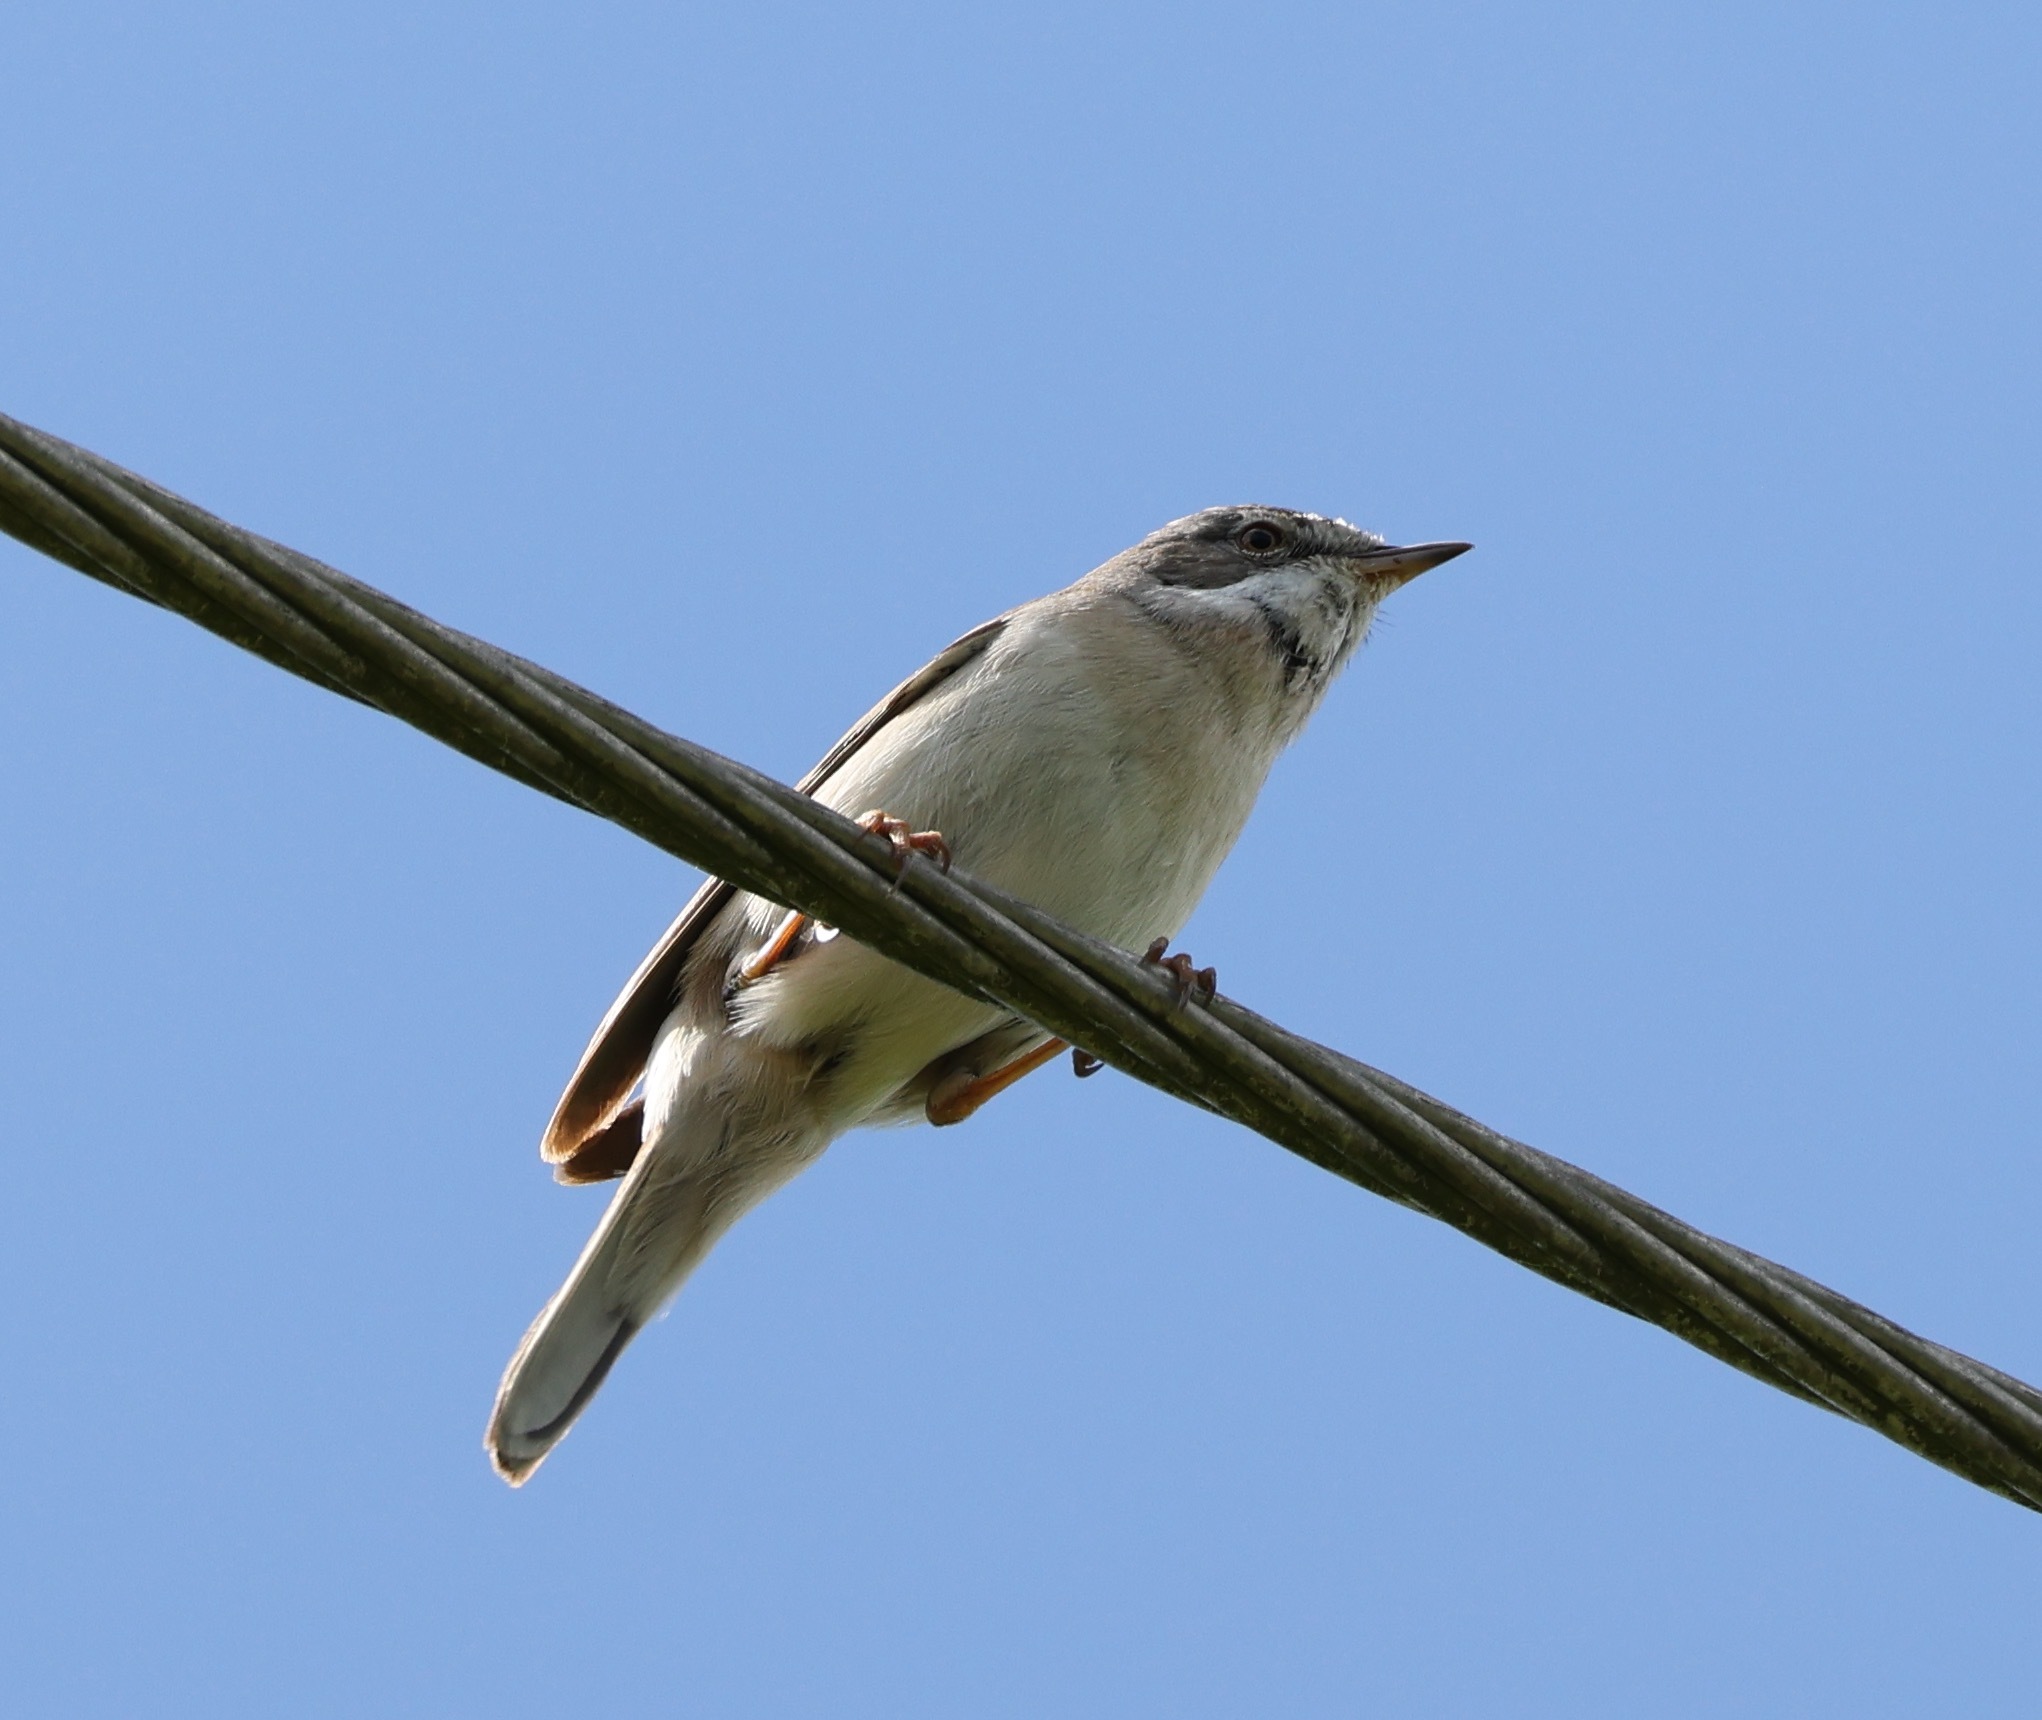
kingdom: Animalia
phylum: Chordata
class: Aves
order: Passeriformes
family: Sylviidae
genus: Sylvia
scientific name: Sylvia communis
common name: Common whitethroat
